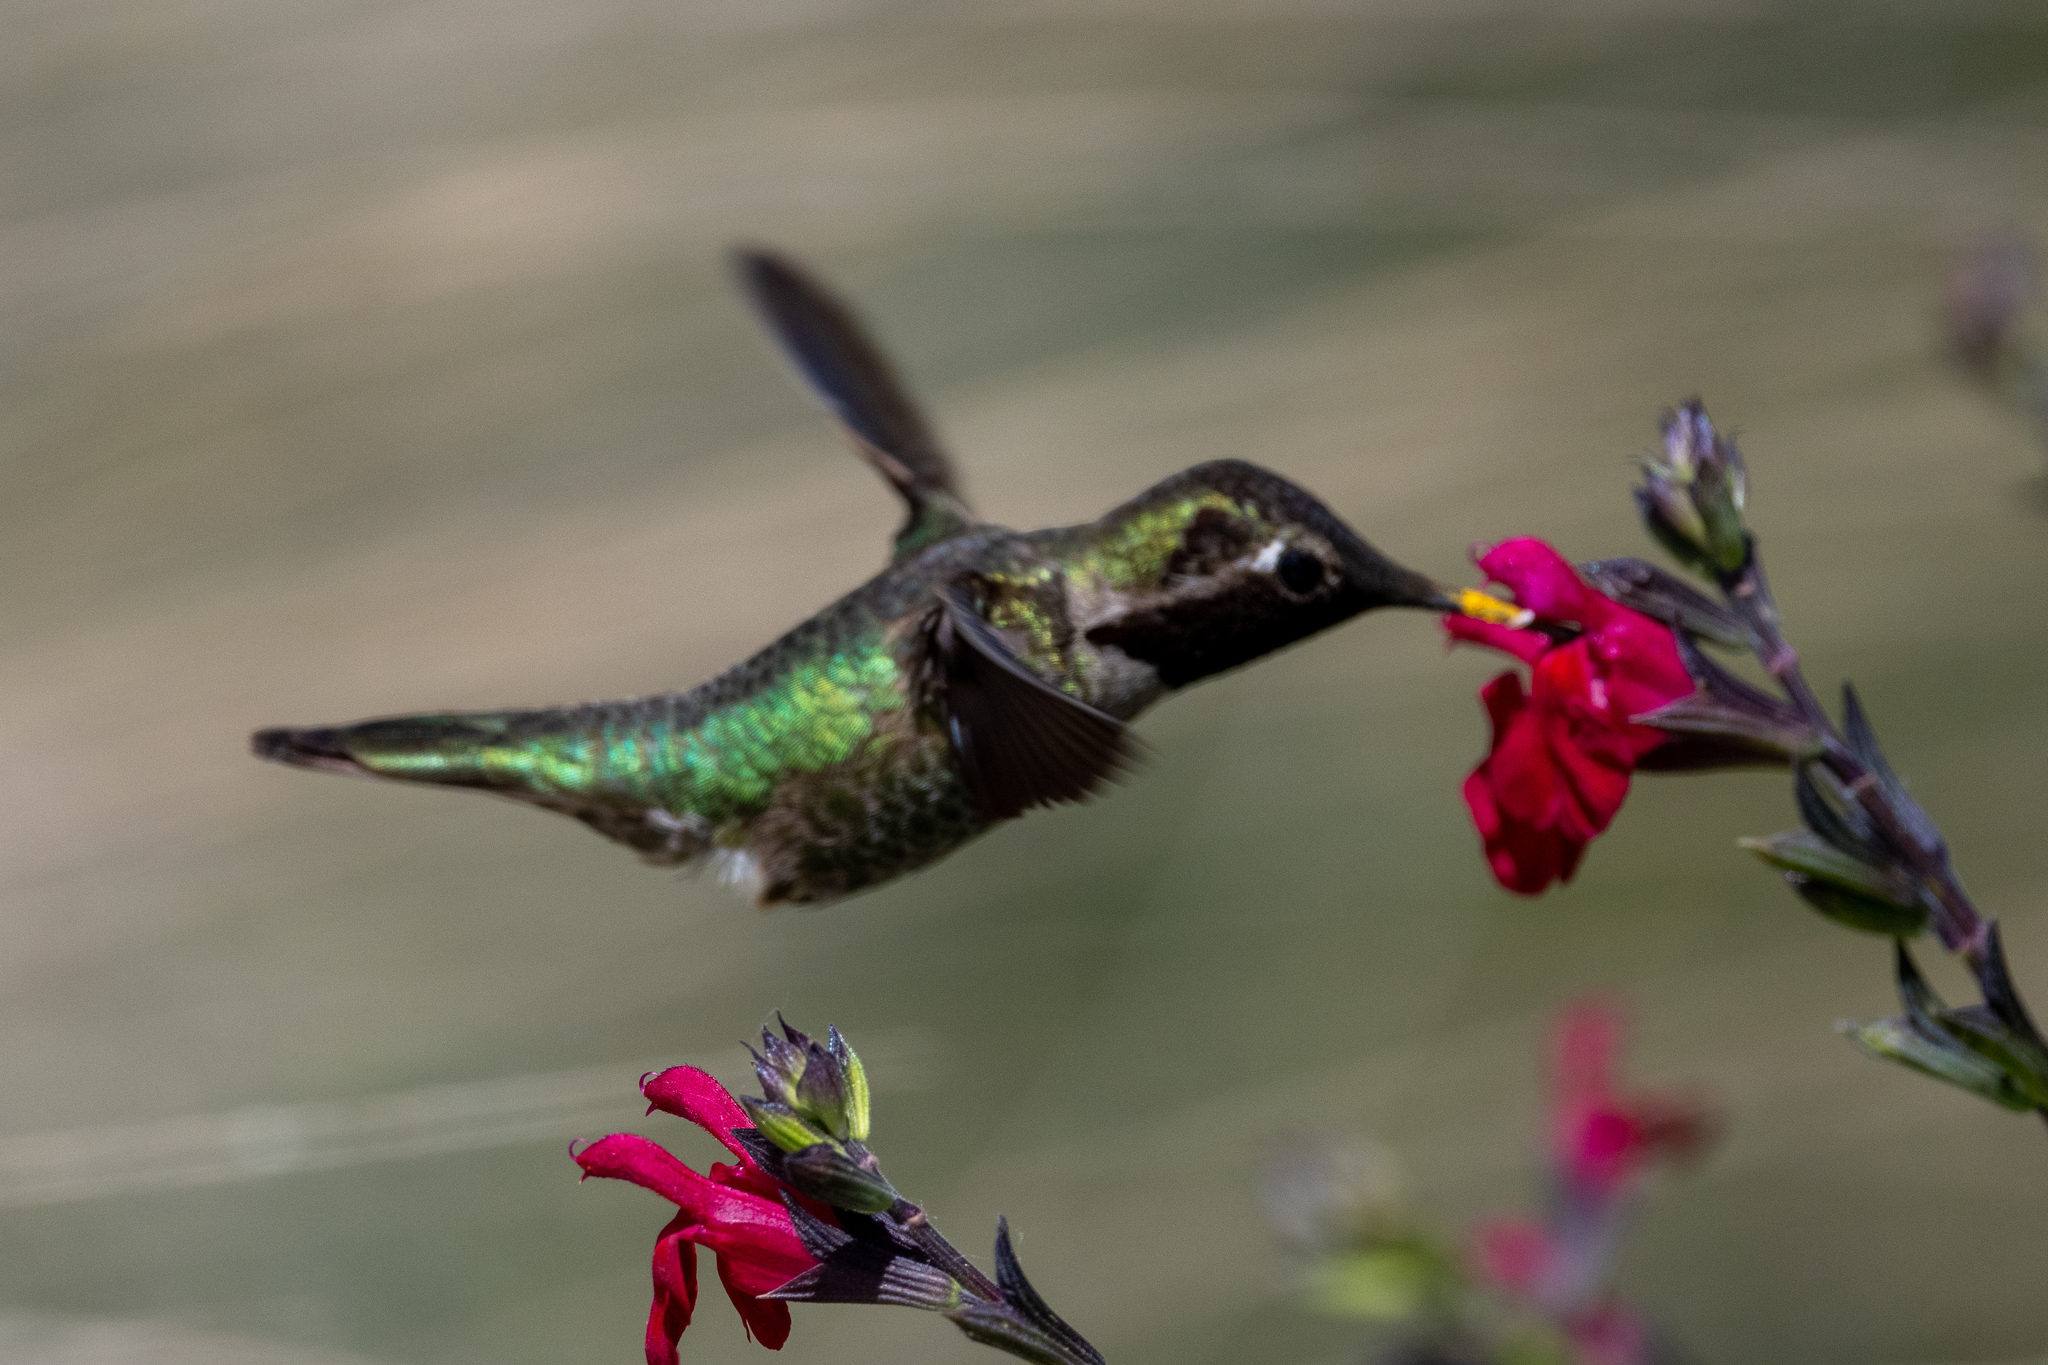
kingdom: Animalia
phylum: Chordata
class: Aves
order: Apodiformes
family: Trochilidae
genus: Calypte
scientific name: Calypte anna
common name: Anna's hummingbird
